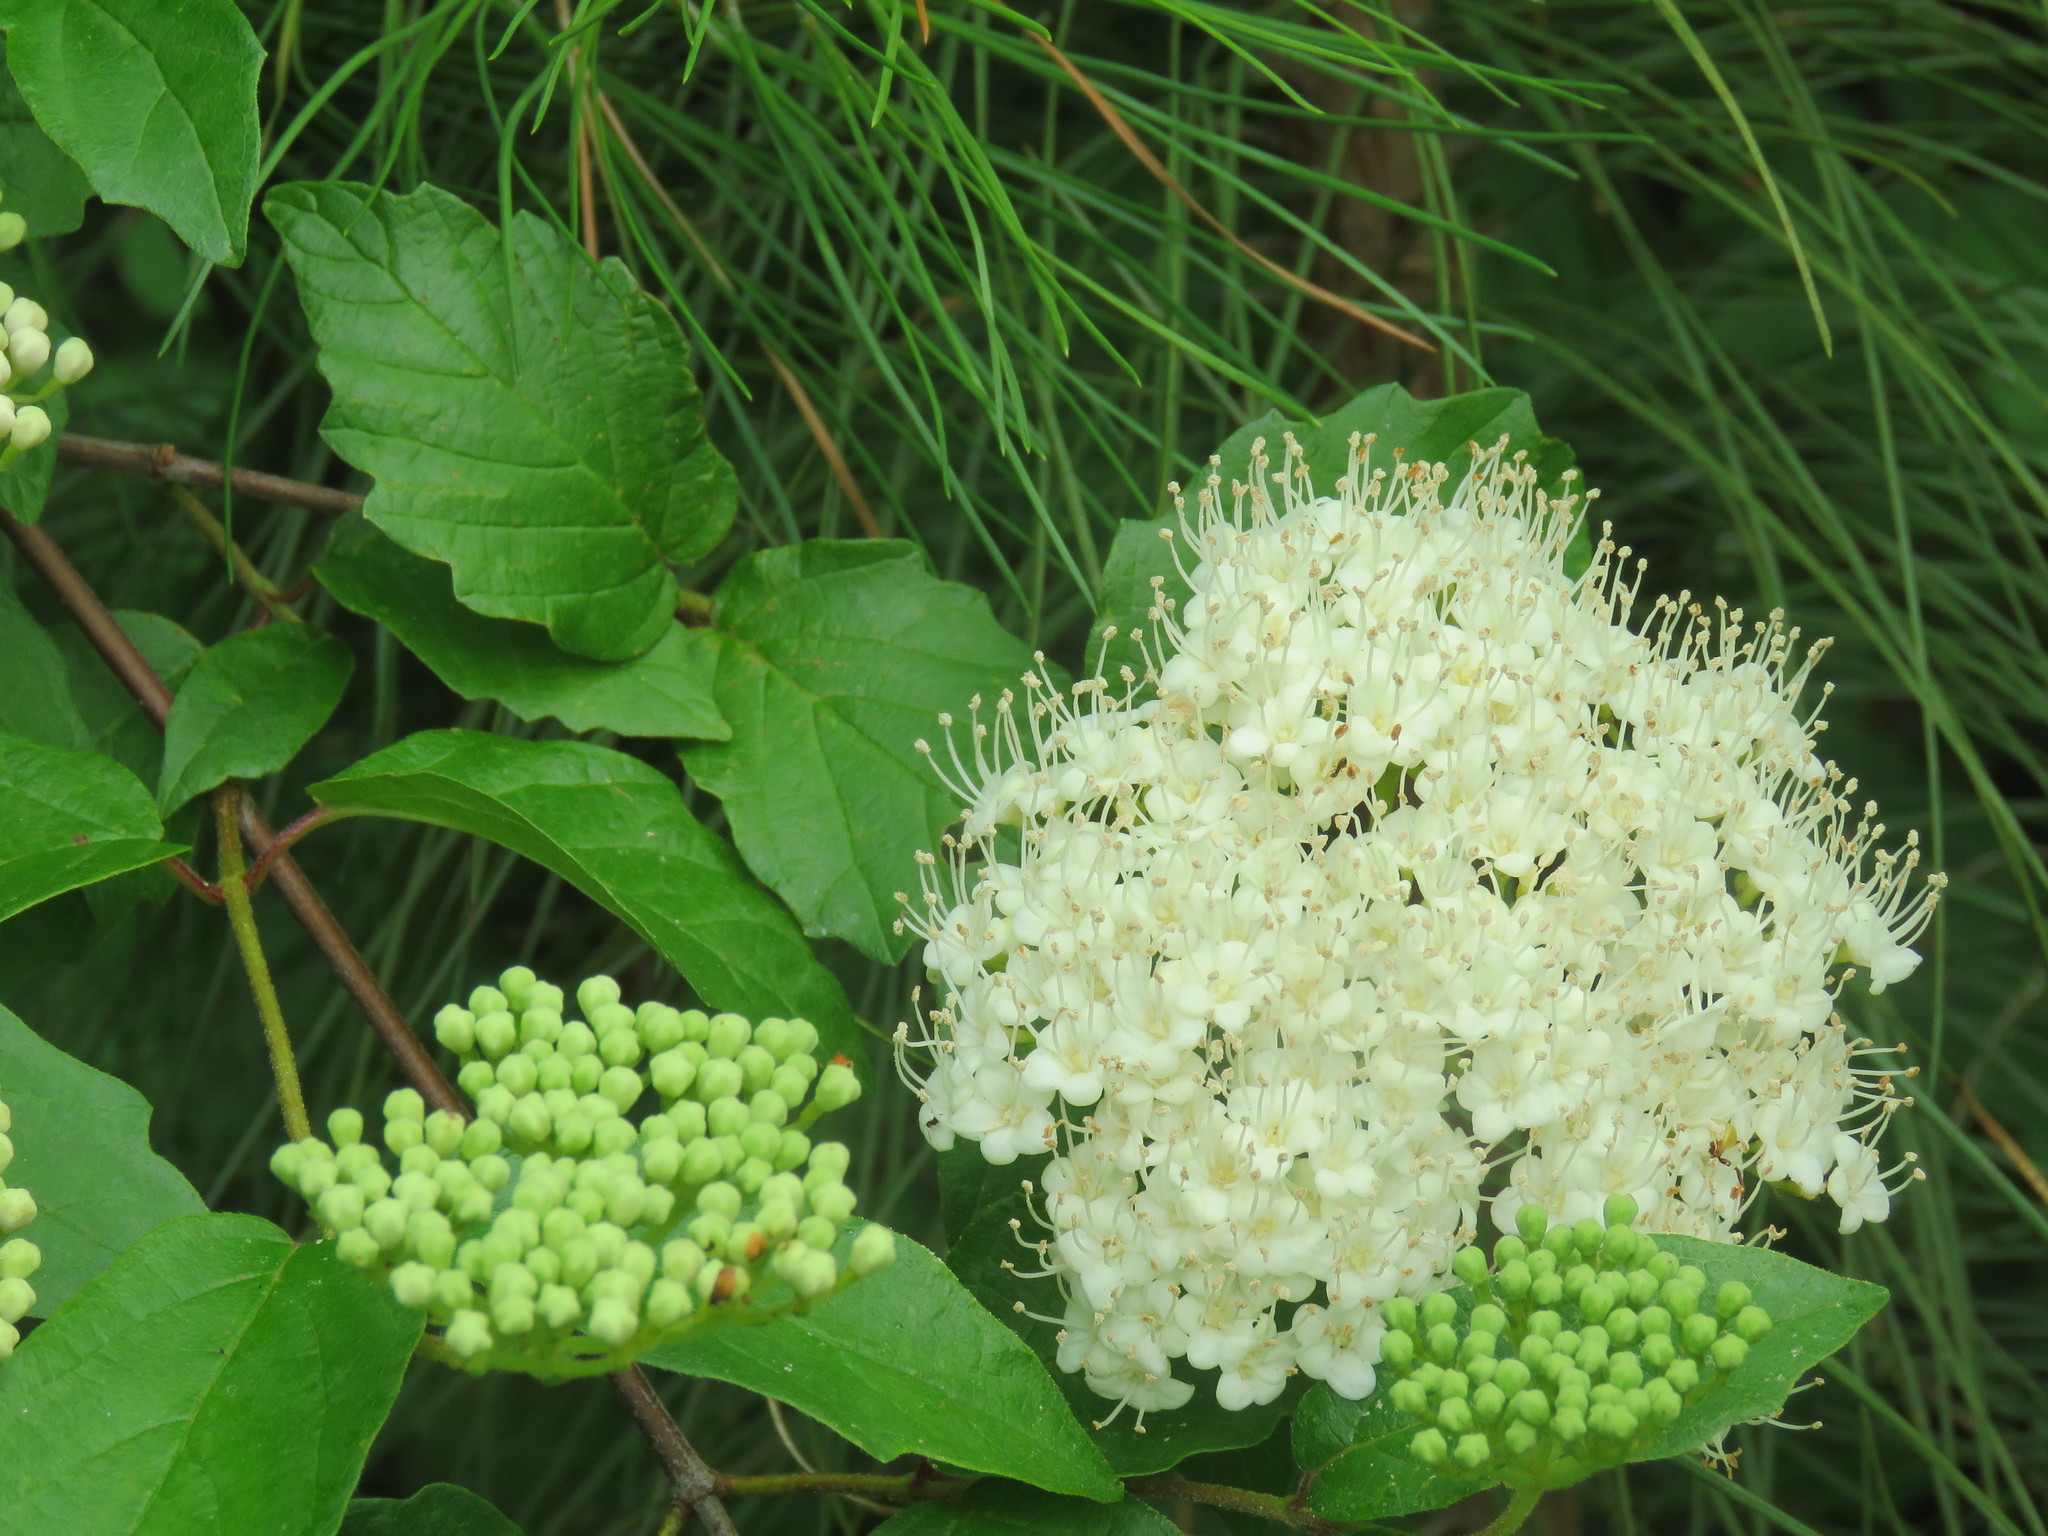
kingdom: Plantae
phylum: Tracheophyta
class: Magnoliopsida
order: Dipsacales
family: Viburnaceae
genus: Viburnum
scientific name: Viburnum scabrellum
